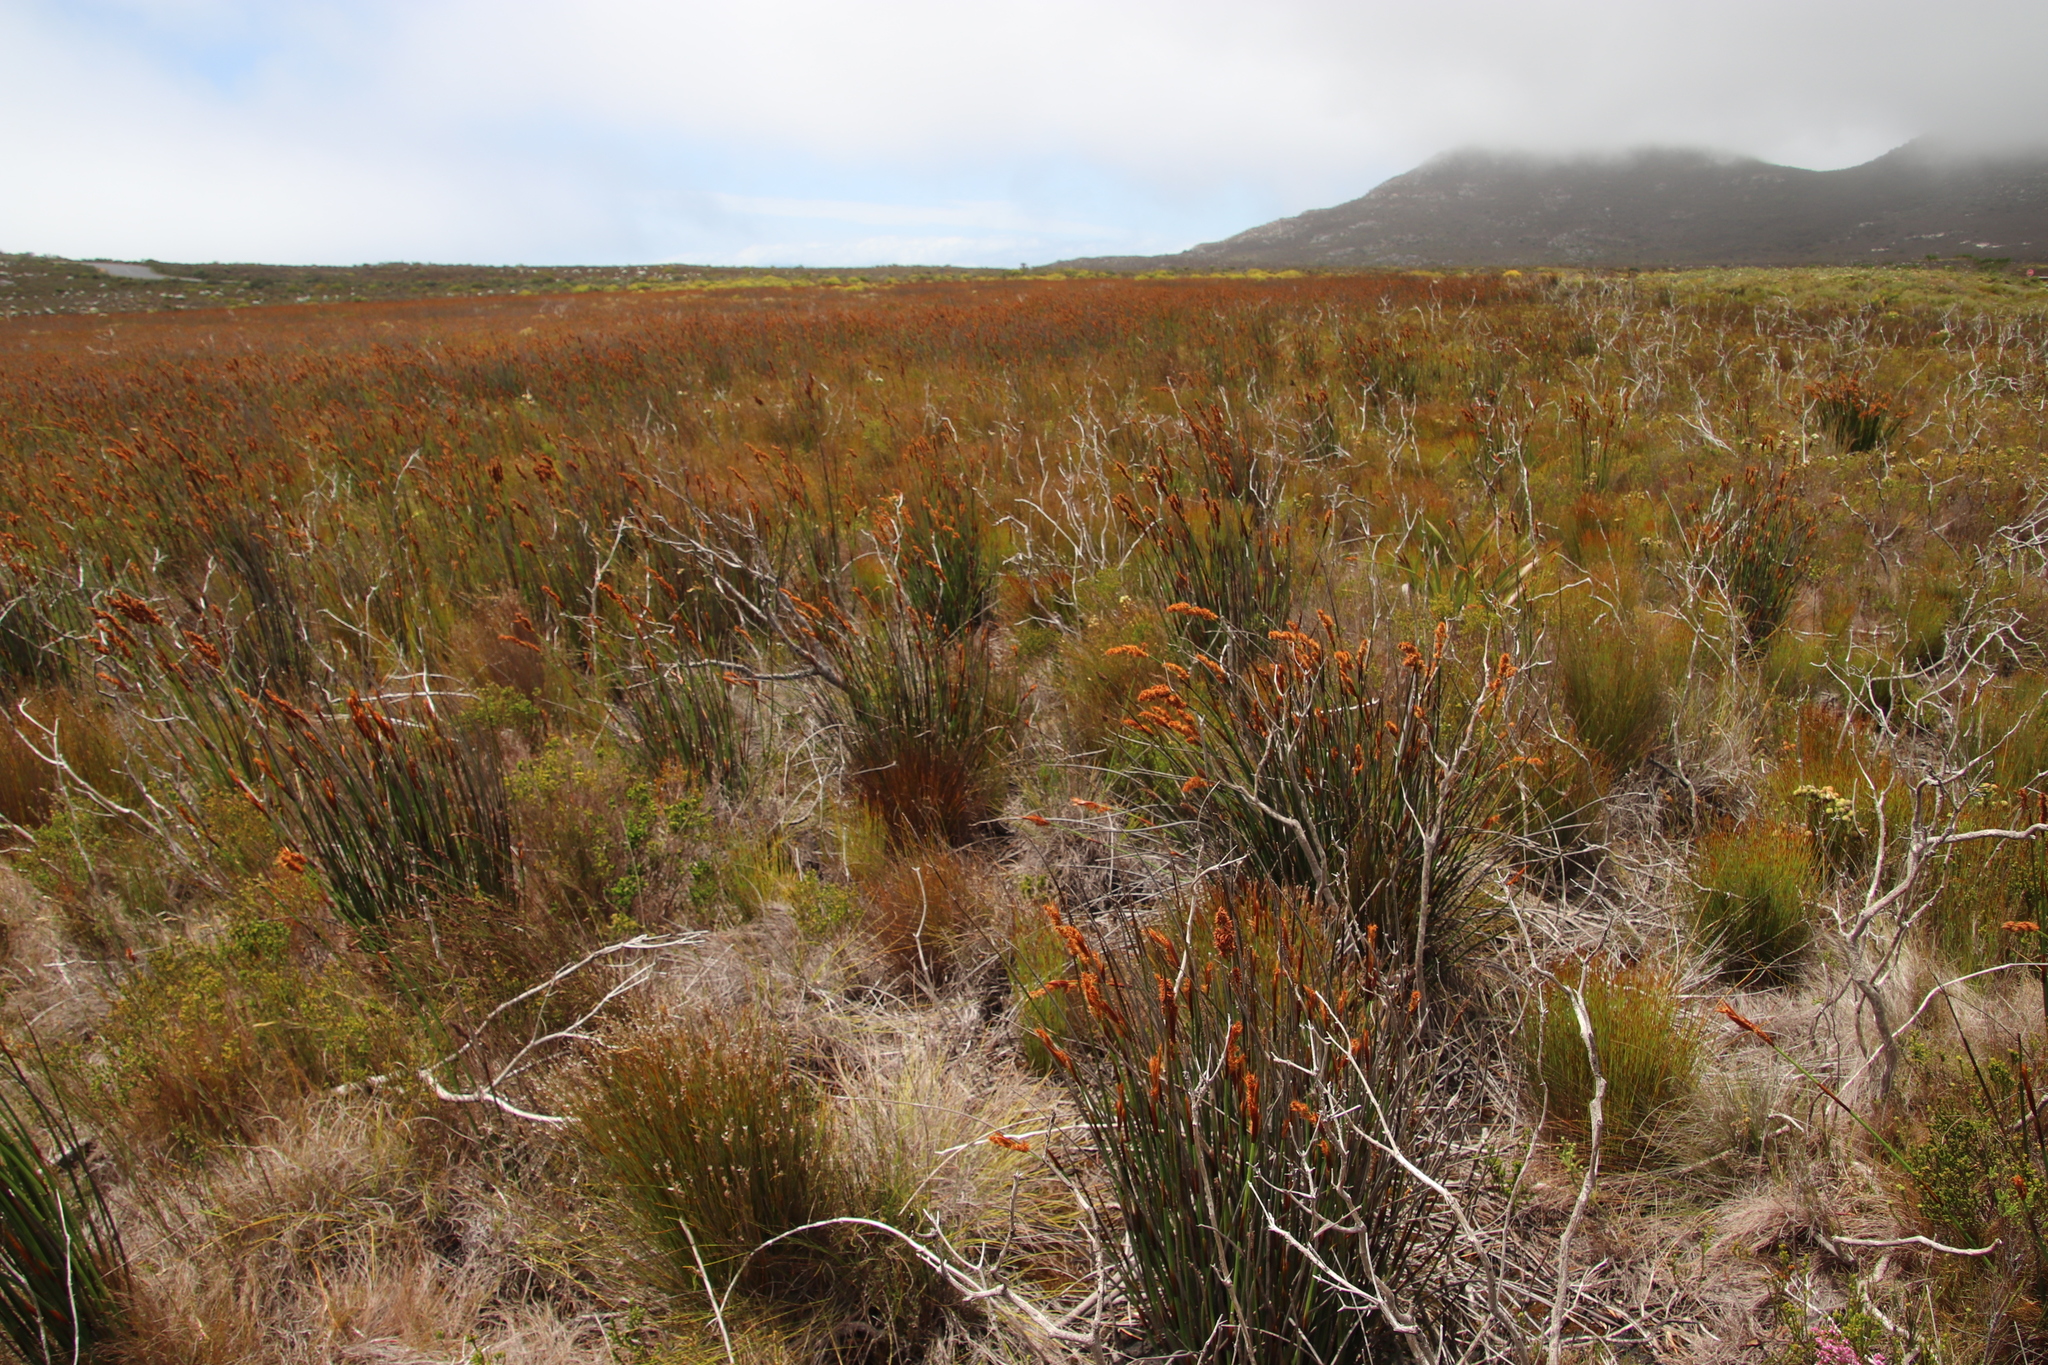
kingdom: Plantae
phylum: Tracheophyta
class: Liliopsida
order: Poales
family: Restionaceae
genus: Elegia
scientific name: Elegia cuspidata
